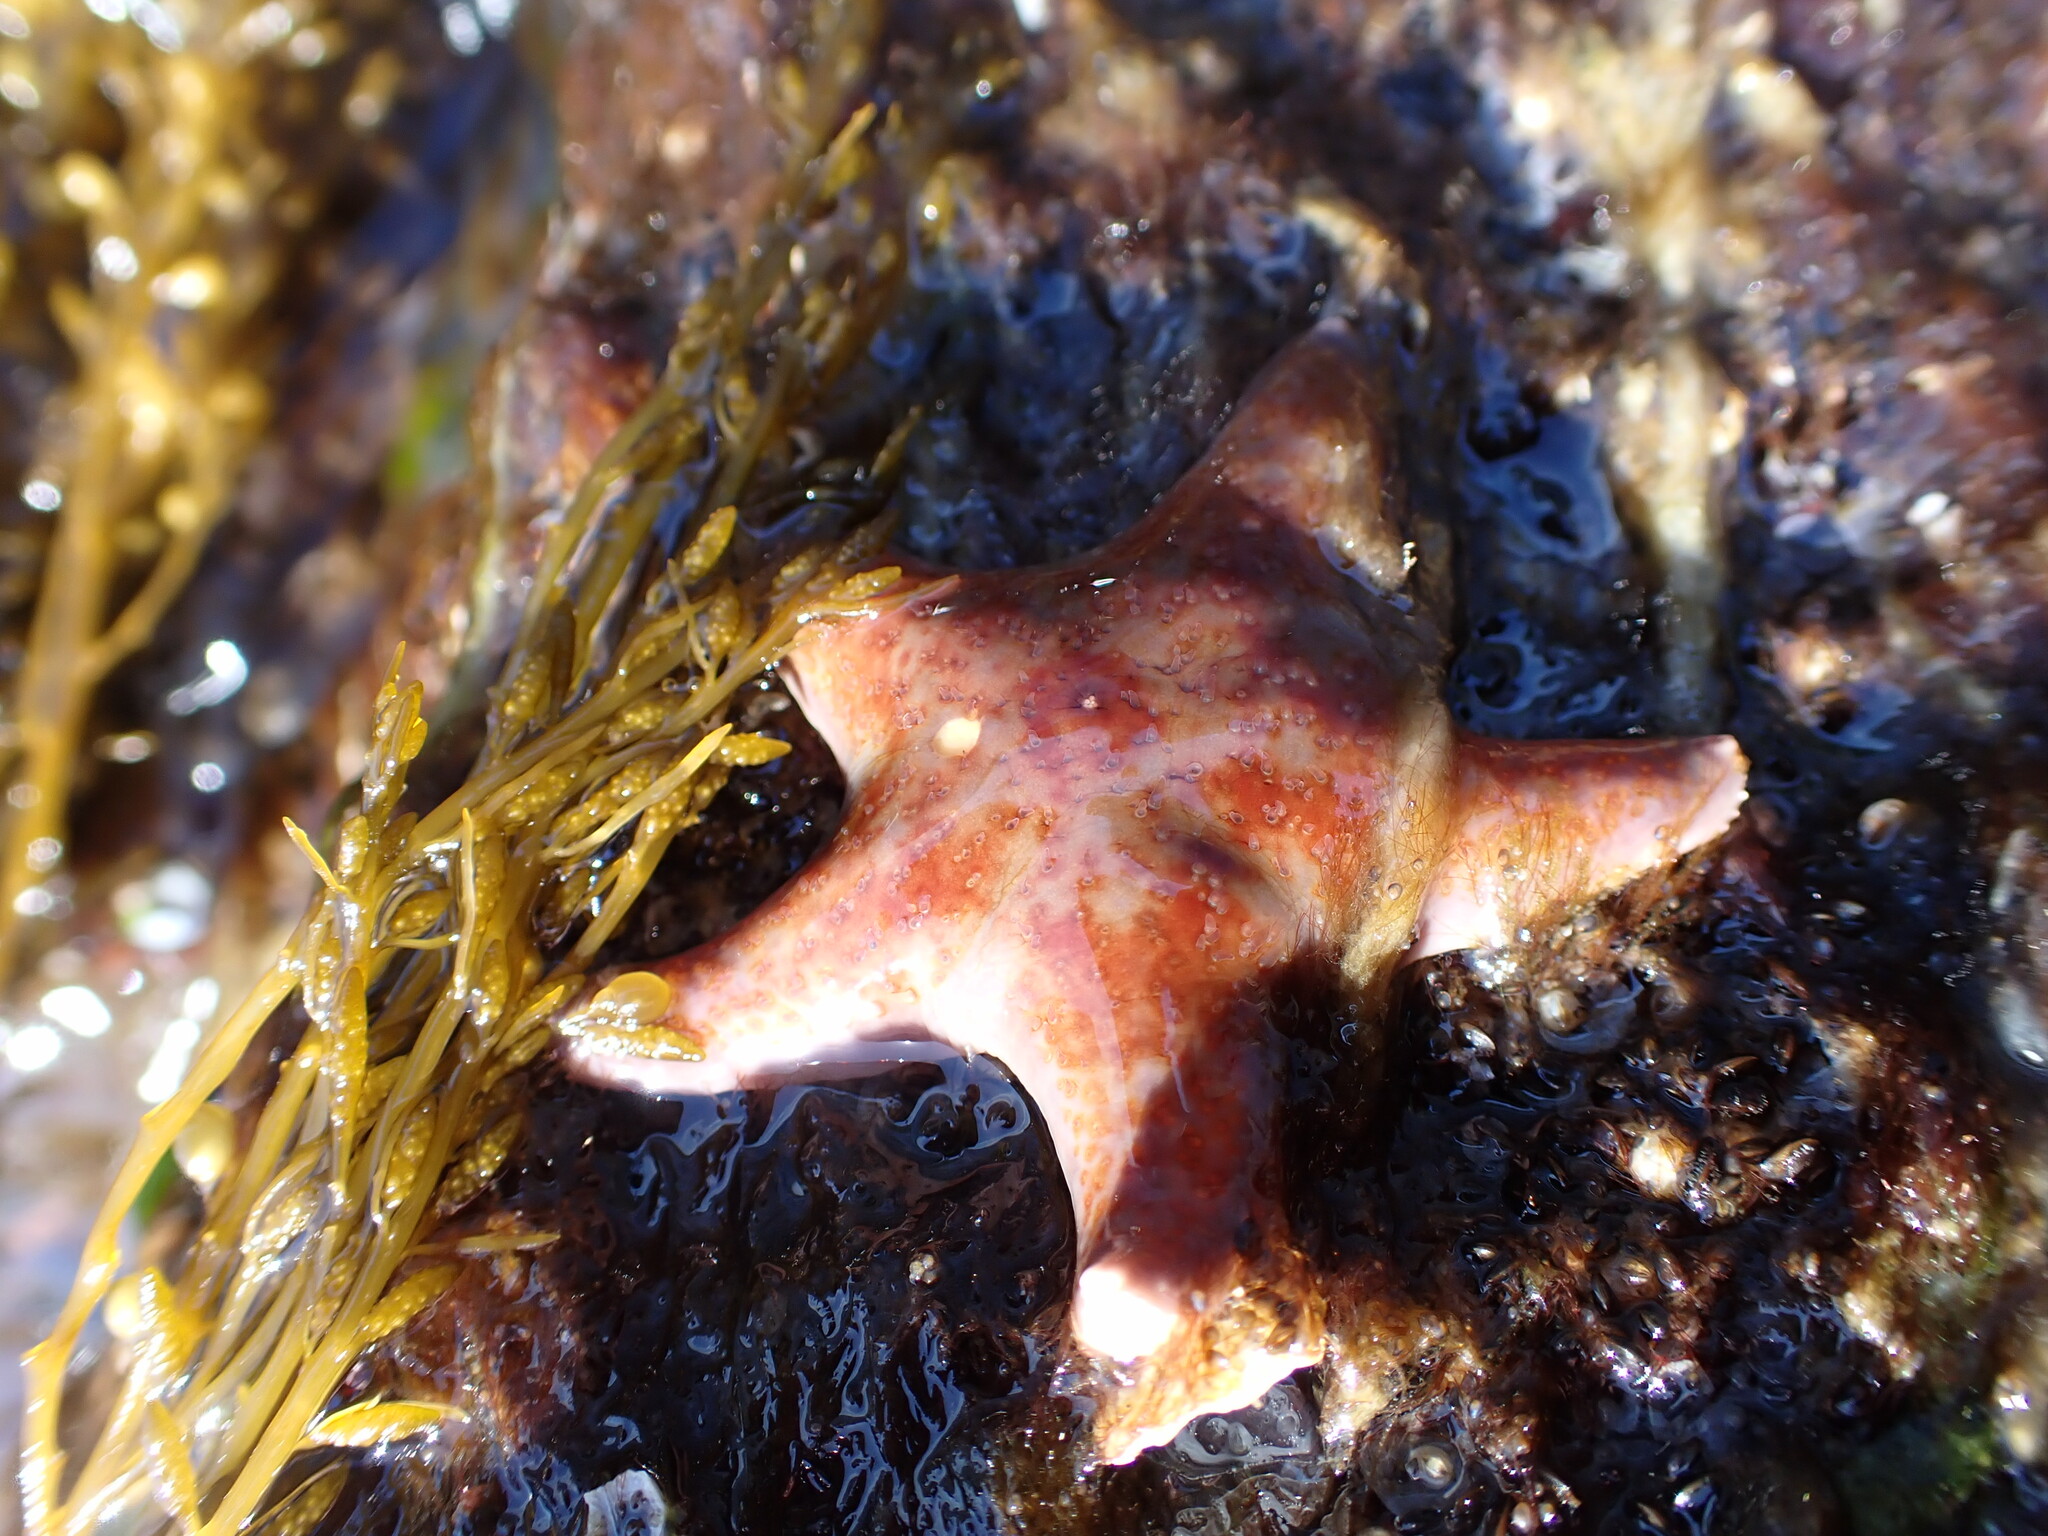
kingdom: Animalia
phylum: Echinodermata
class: Asteroidea
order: Valvatida
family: Asteropseidae
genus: Dermasterias
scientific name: Dermasterias imbricata
